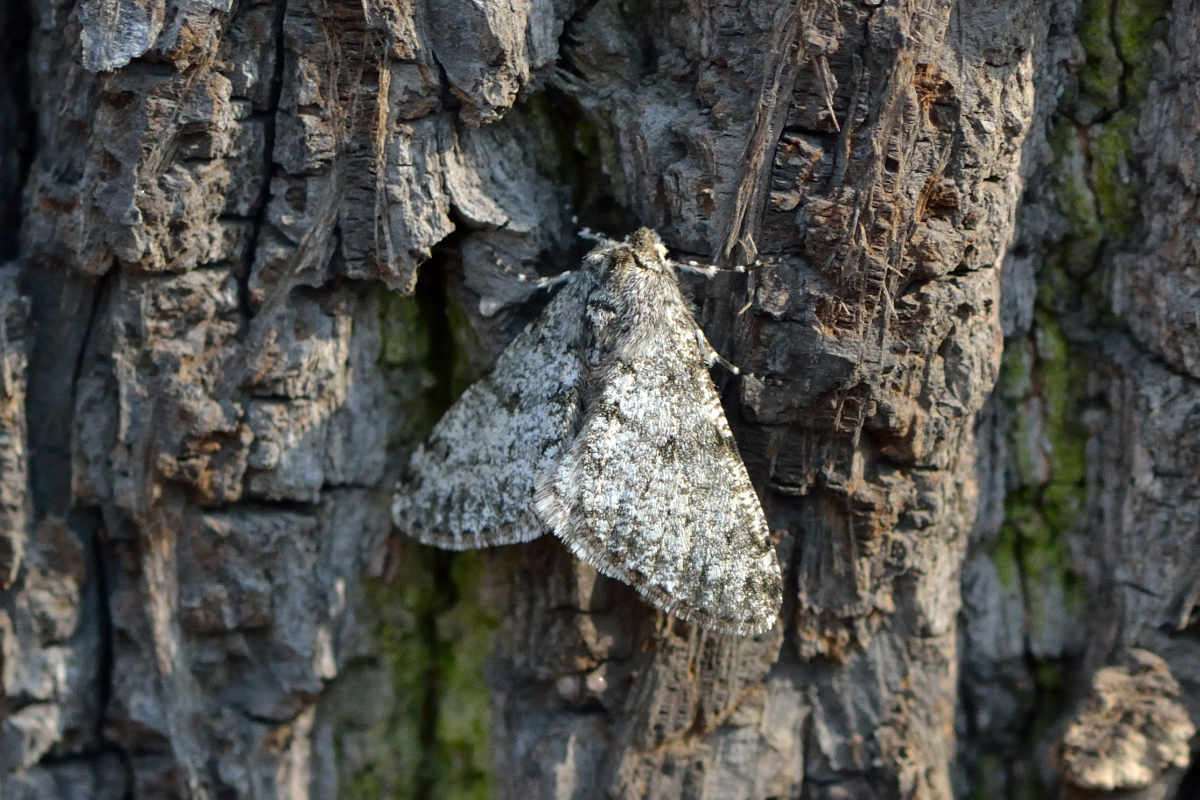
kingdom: Animalia
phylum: Arthropoda
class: Insecta
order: Lepidoptera
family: Geometridae
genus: Phigalia
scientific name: Phigalia pilosaria
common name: Pale brindled beauty
